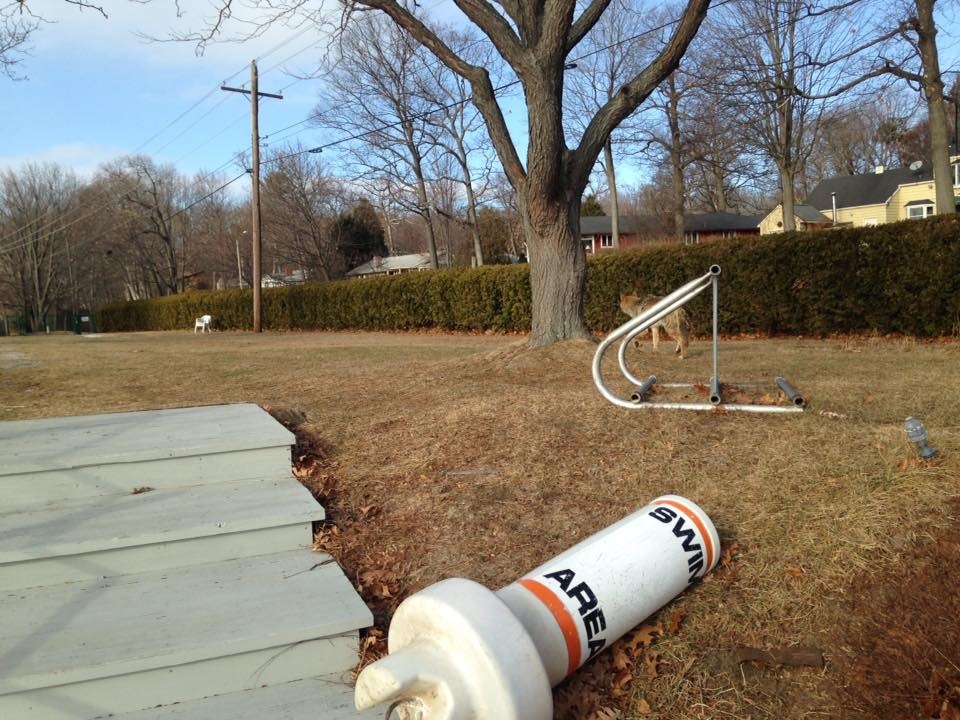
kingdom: Animalia
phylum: Chordata
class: Mammalia
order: Carnivora
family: Canidae
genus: Canis
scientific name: Canis latrans
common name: Coyote
